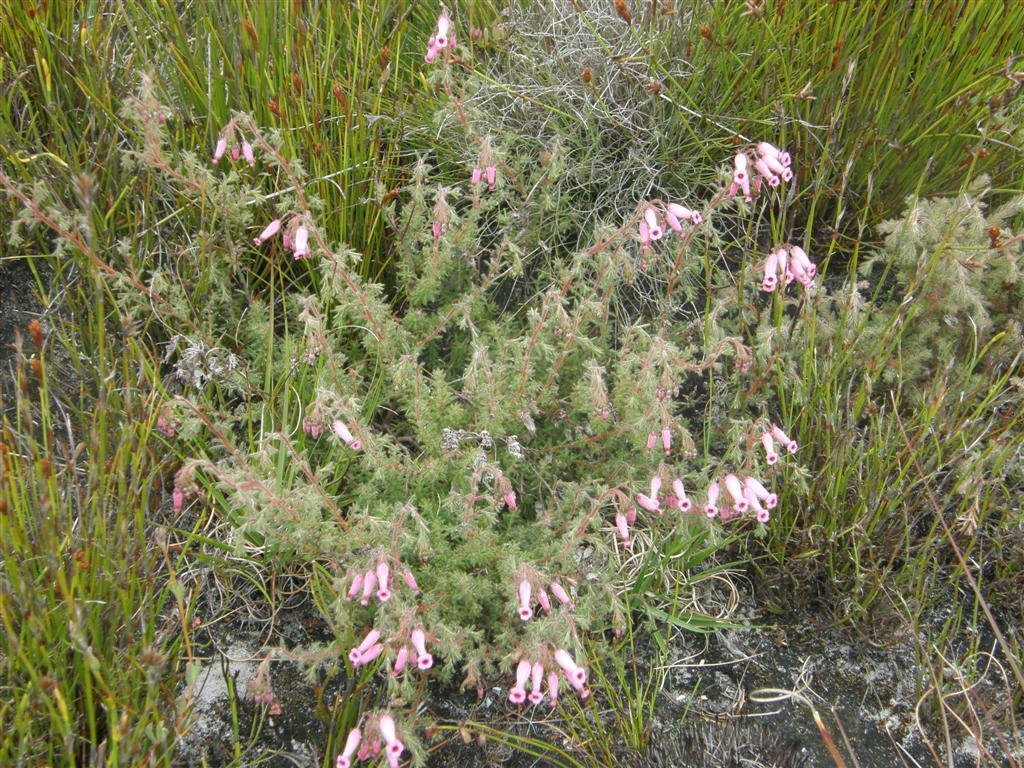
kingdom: Plantae
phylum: Tracheophyta
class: Magnoliopsida
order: Ericales
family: Ericaceae
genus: Erica
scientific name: Erica glutinosa
